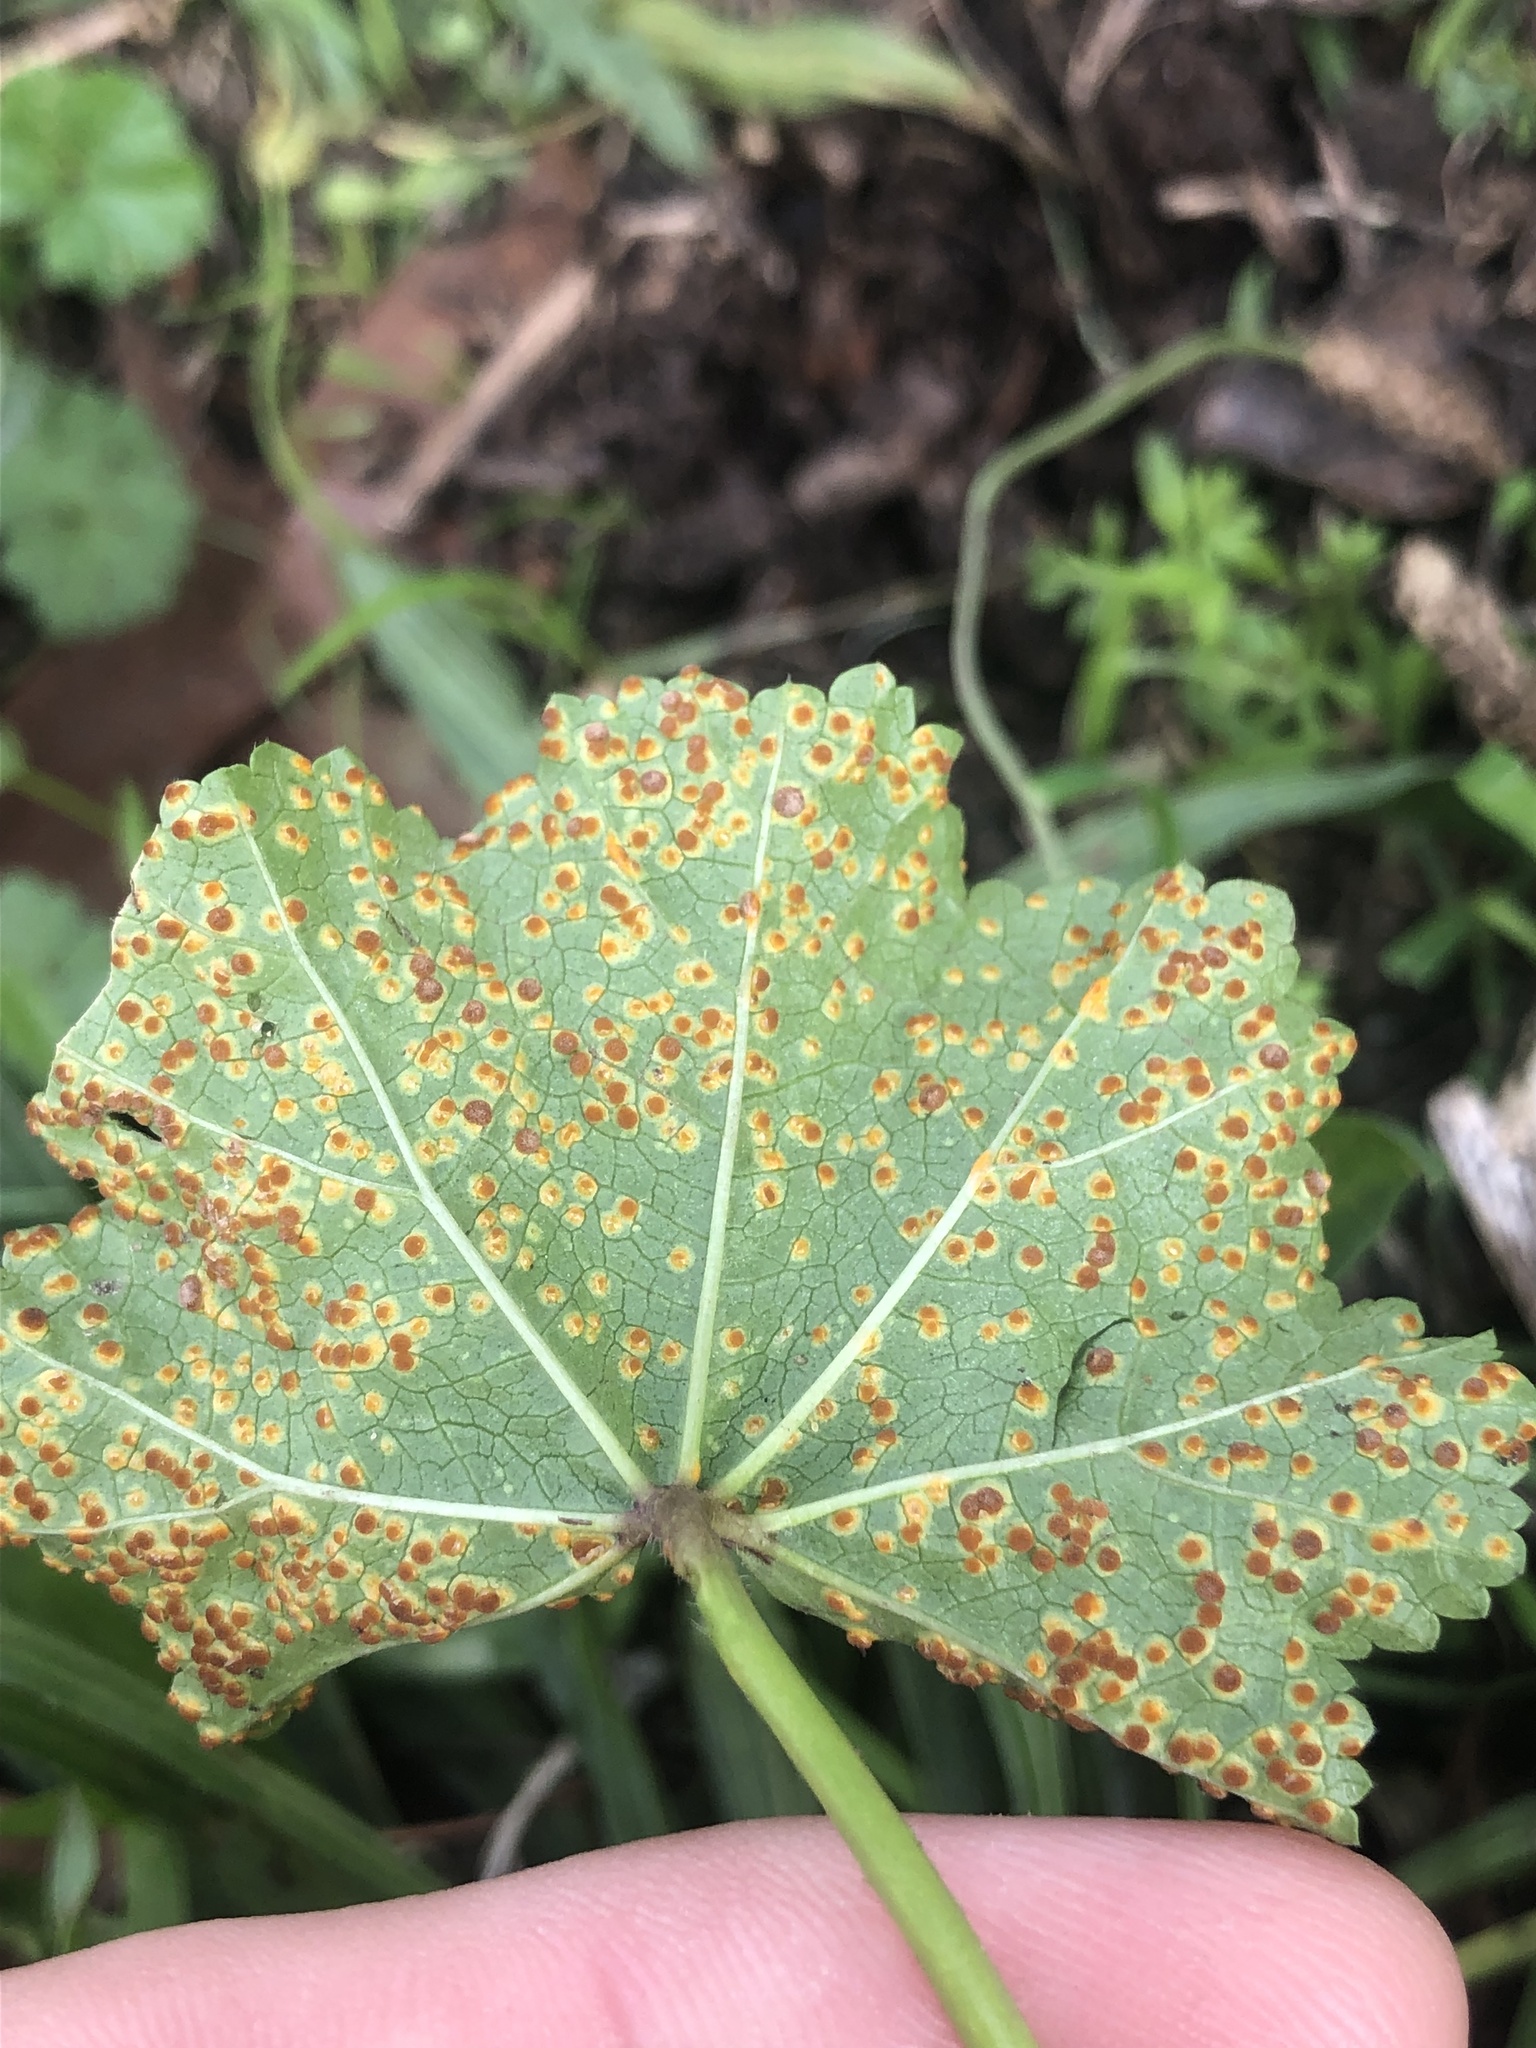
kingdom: Fungi
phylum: Basidiomycota
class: Pucciniomycetes
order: Pucciniales
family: Pucciniaceae
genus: Puccinia
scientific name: Puccinia malvacearum
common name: Hollyhock rust
